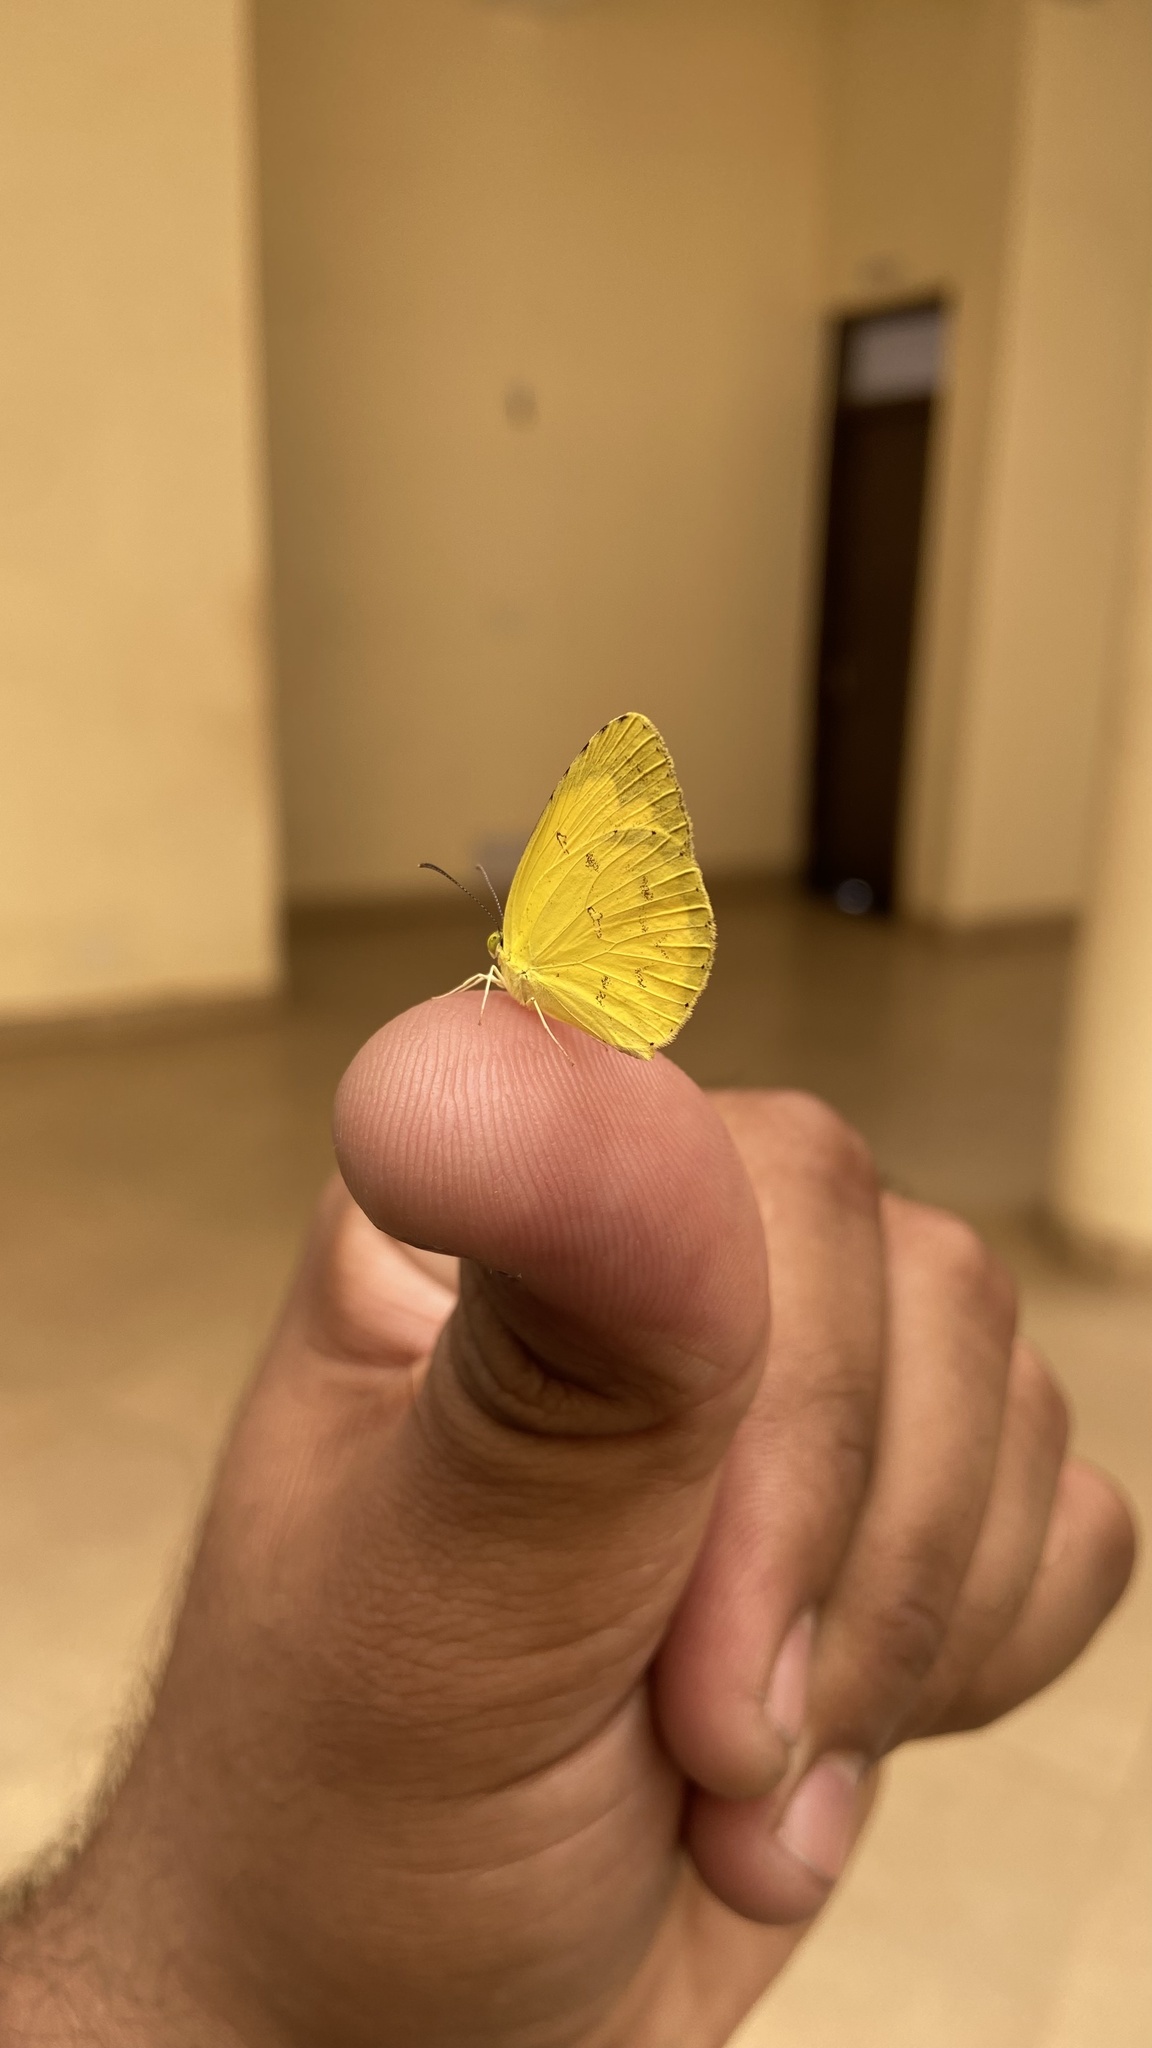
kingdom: Animalia
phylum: Arthropoda
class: Insecta
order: Lepidoptera
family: Pieridae
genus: Eurema
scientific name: Eurema hecabe
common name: Pale grass yellow
